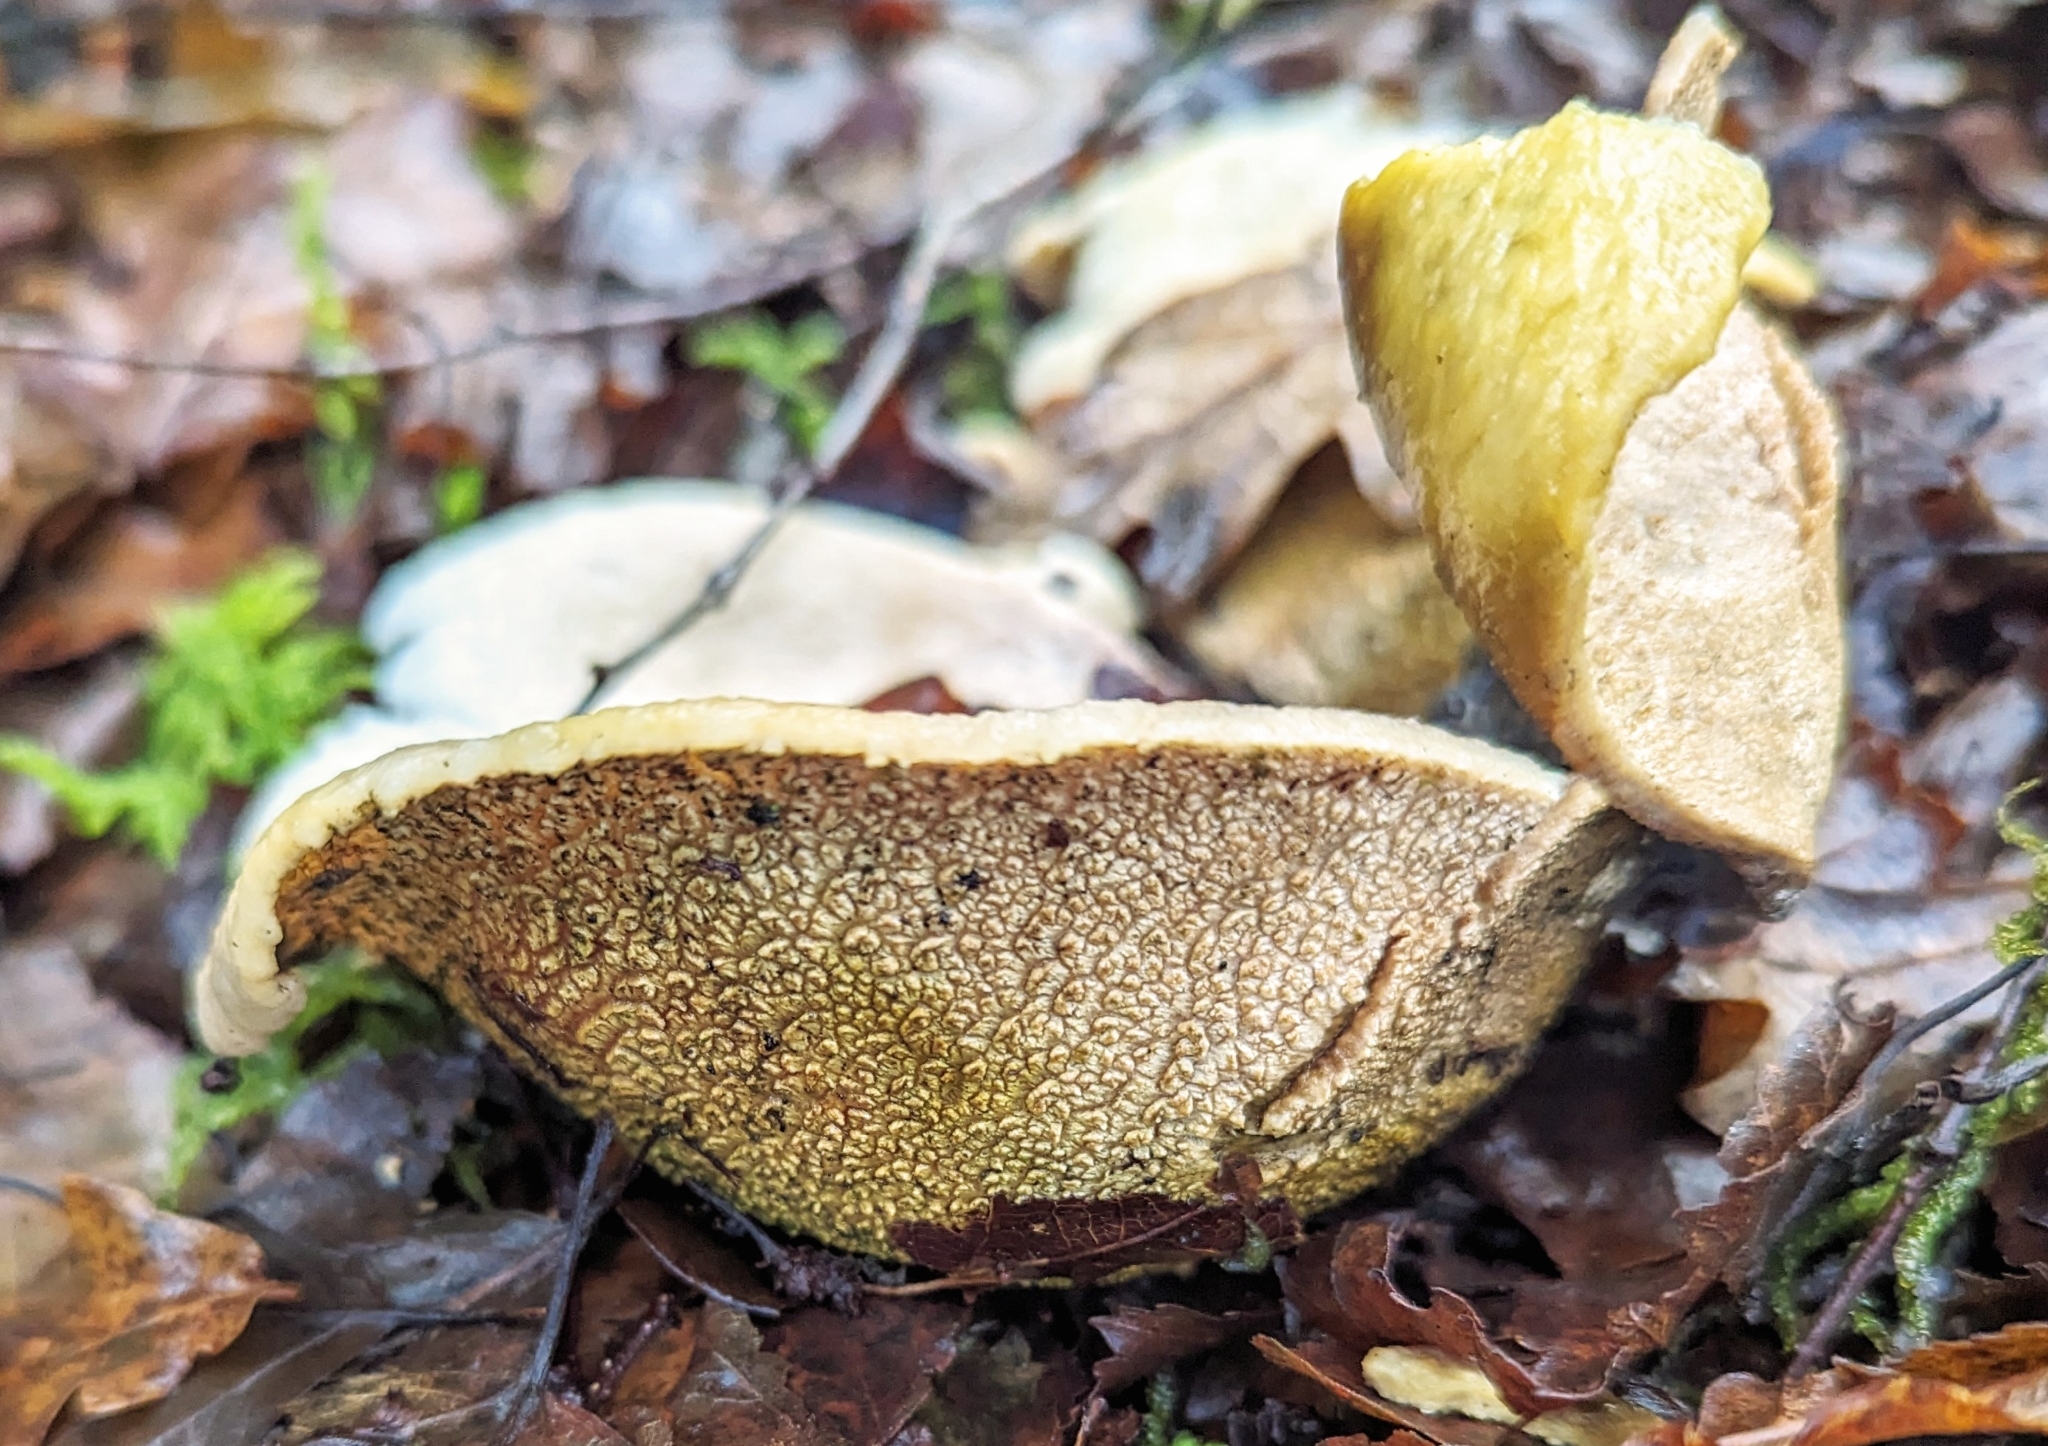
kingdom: Fungi
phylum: Basidiomycota
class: Agaricomycetes
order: Boletales
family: Sclerodermataceae
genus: Scleroderma
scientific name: Scleroderma citrinum
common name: Common earthball
